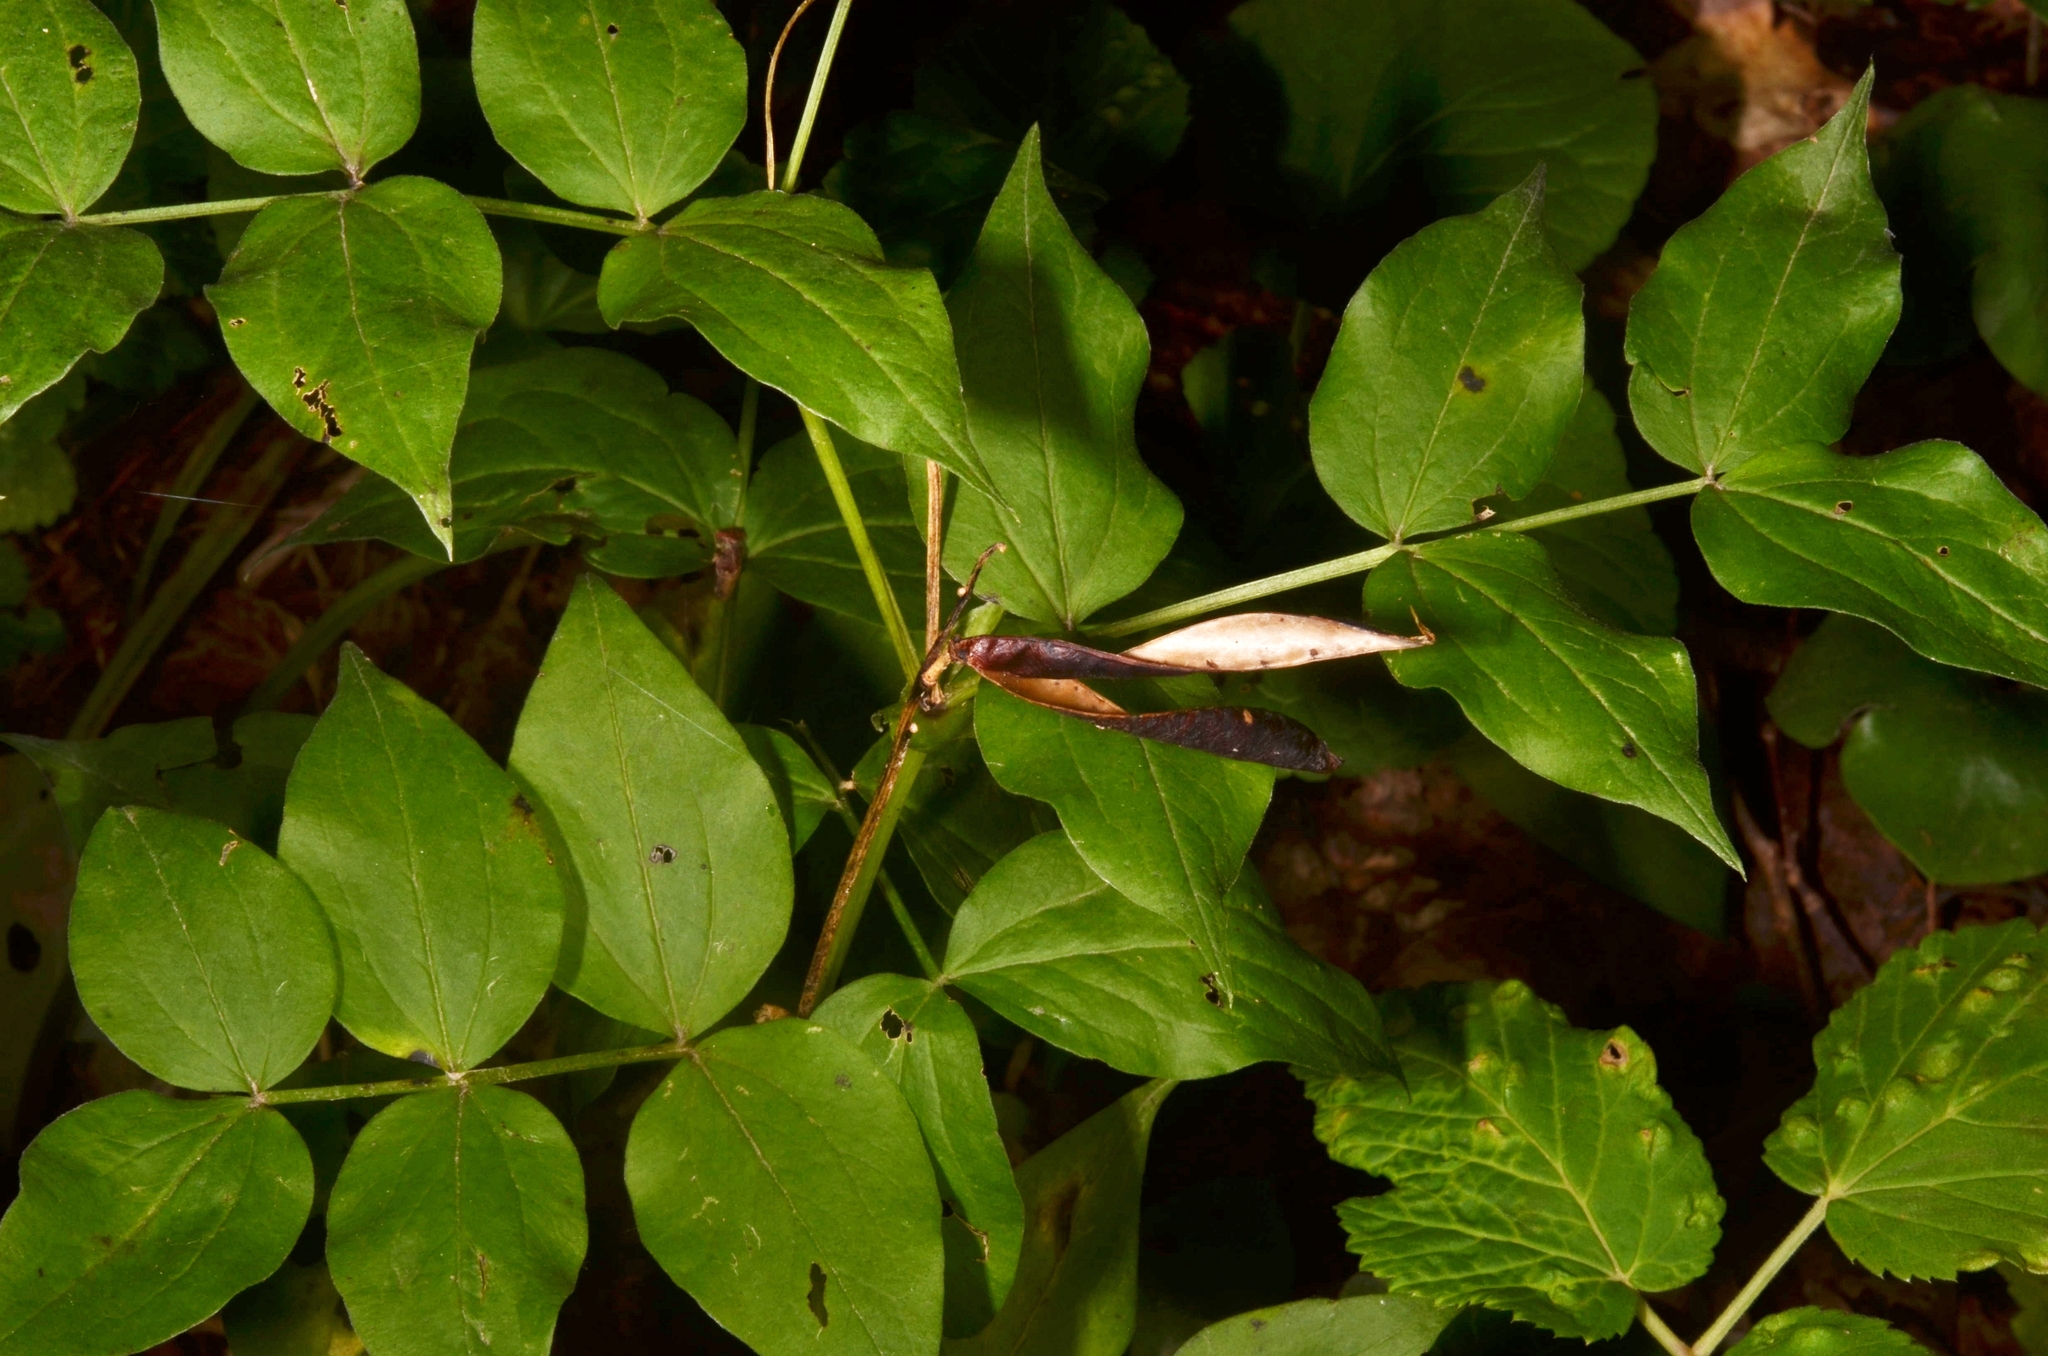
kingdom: Plantae
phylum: Tracheophyta
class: Magnoliopsida
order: Fabales
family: Fabaceae
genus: Lathyrus
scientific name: Lathyrus vernus
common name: Spring pea
